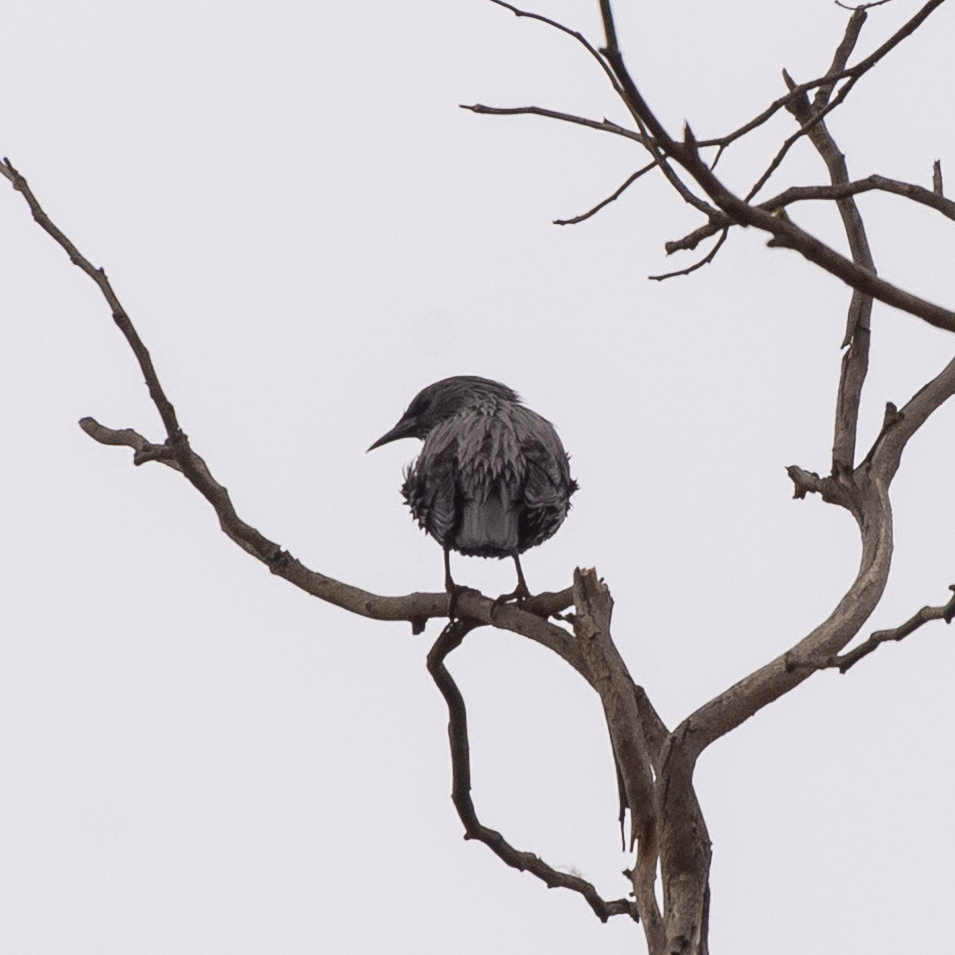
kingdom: Animalia
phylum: Chordata
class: Aves
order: Passeriformes
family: Sturnidae
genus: Sturnus
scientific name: Sturnus unicolor
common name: Spotless starling
